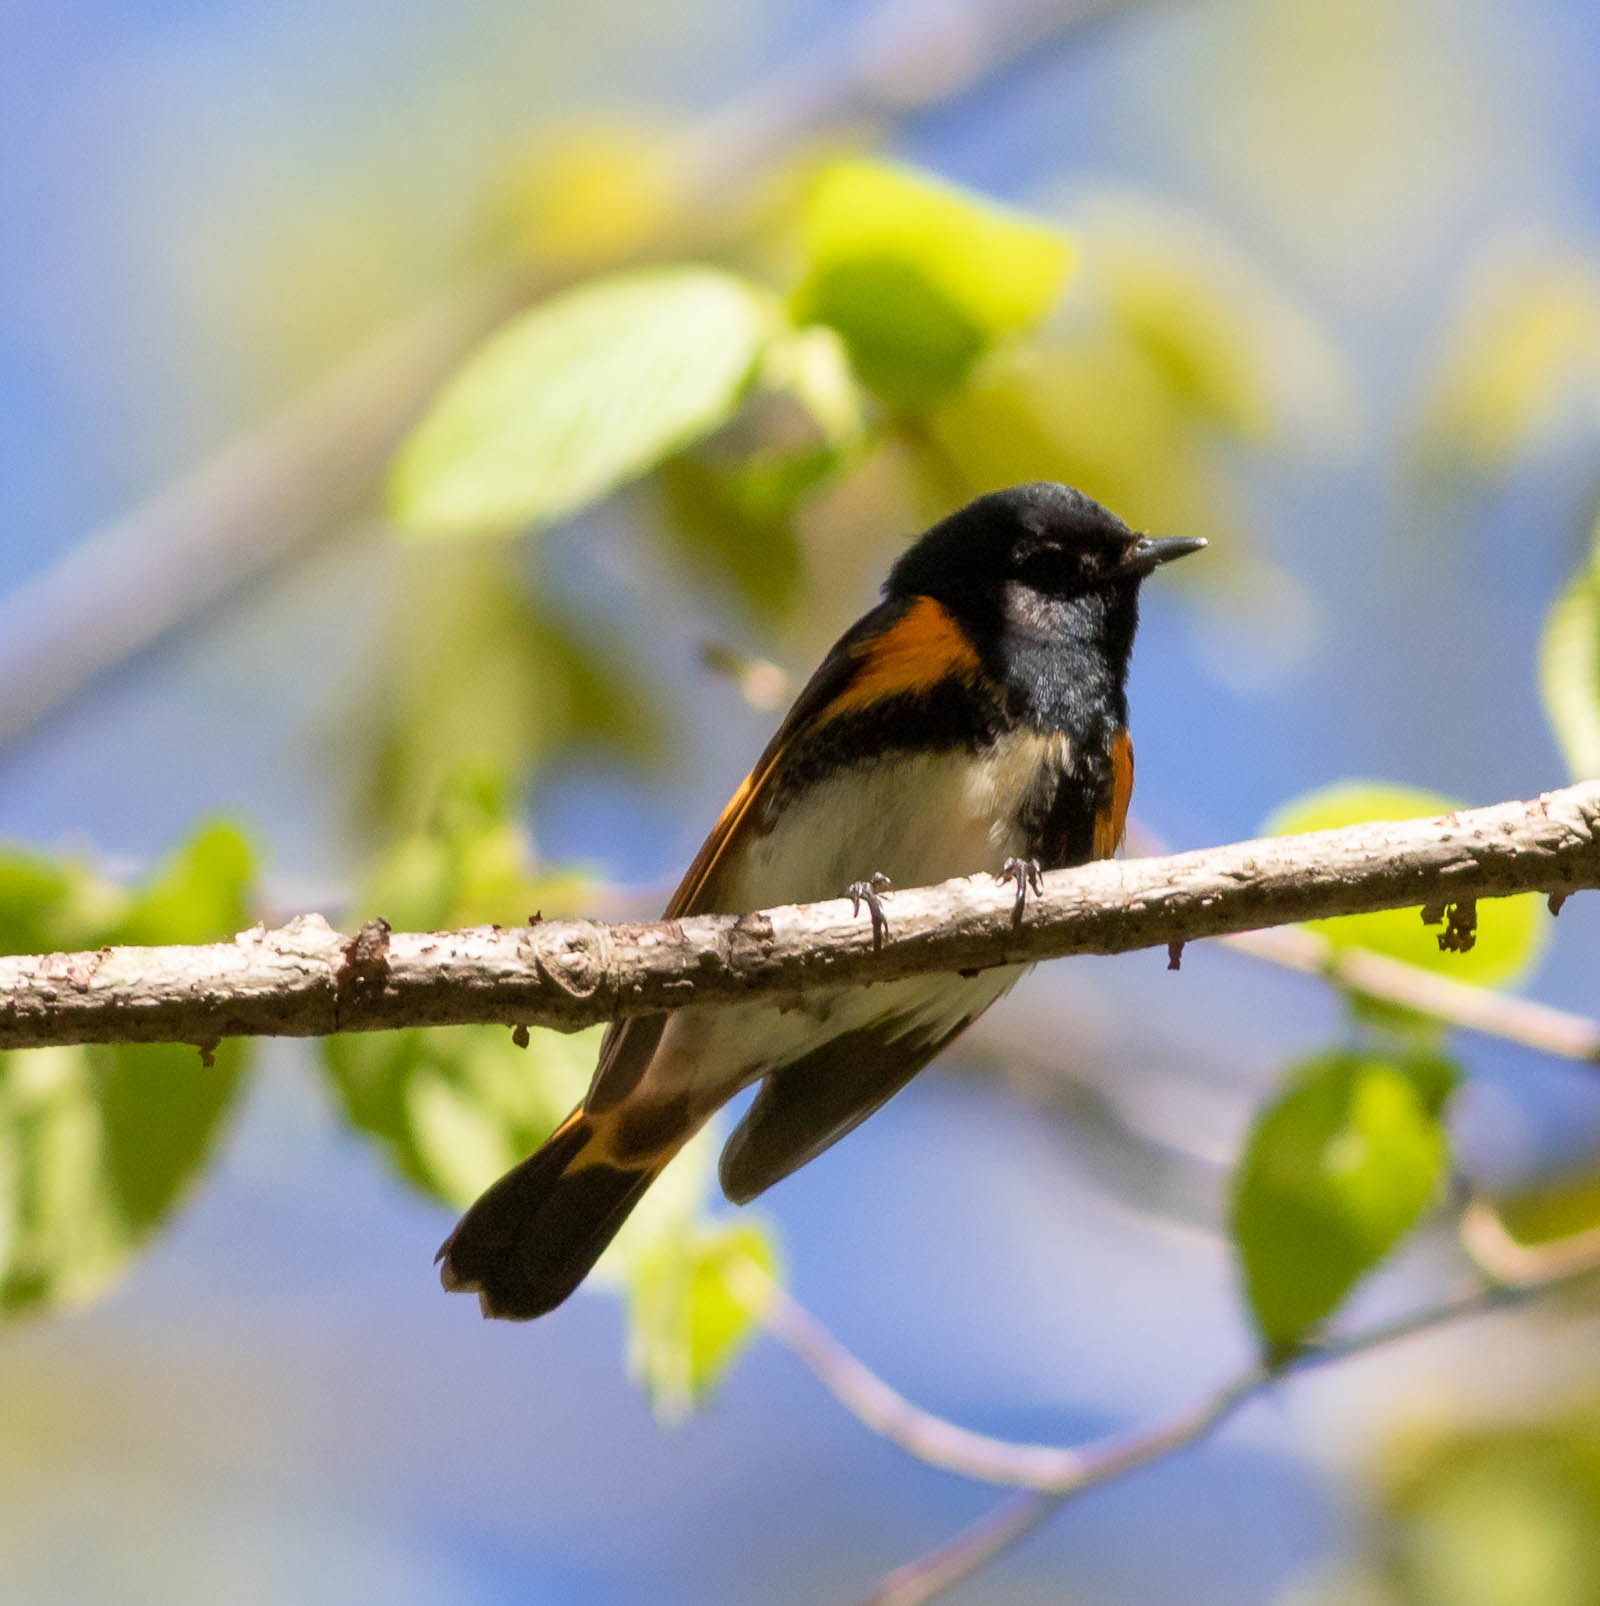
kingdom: Animalia
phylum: Chordata
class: Aves
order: Passeriformes
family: Parulidae
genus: Setophaga
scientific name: Setophaga ruticilla
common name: American redstart
